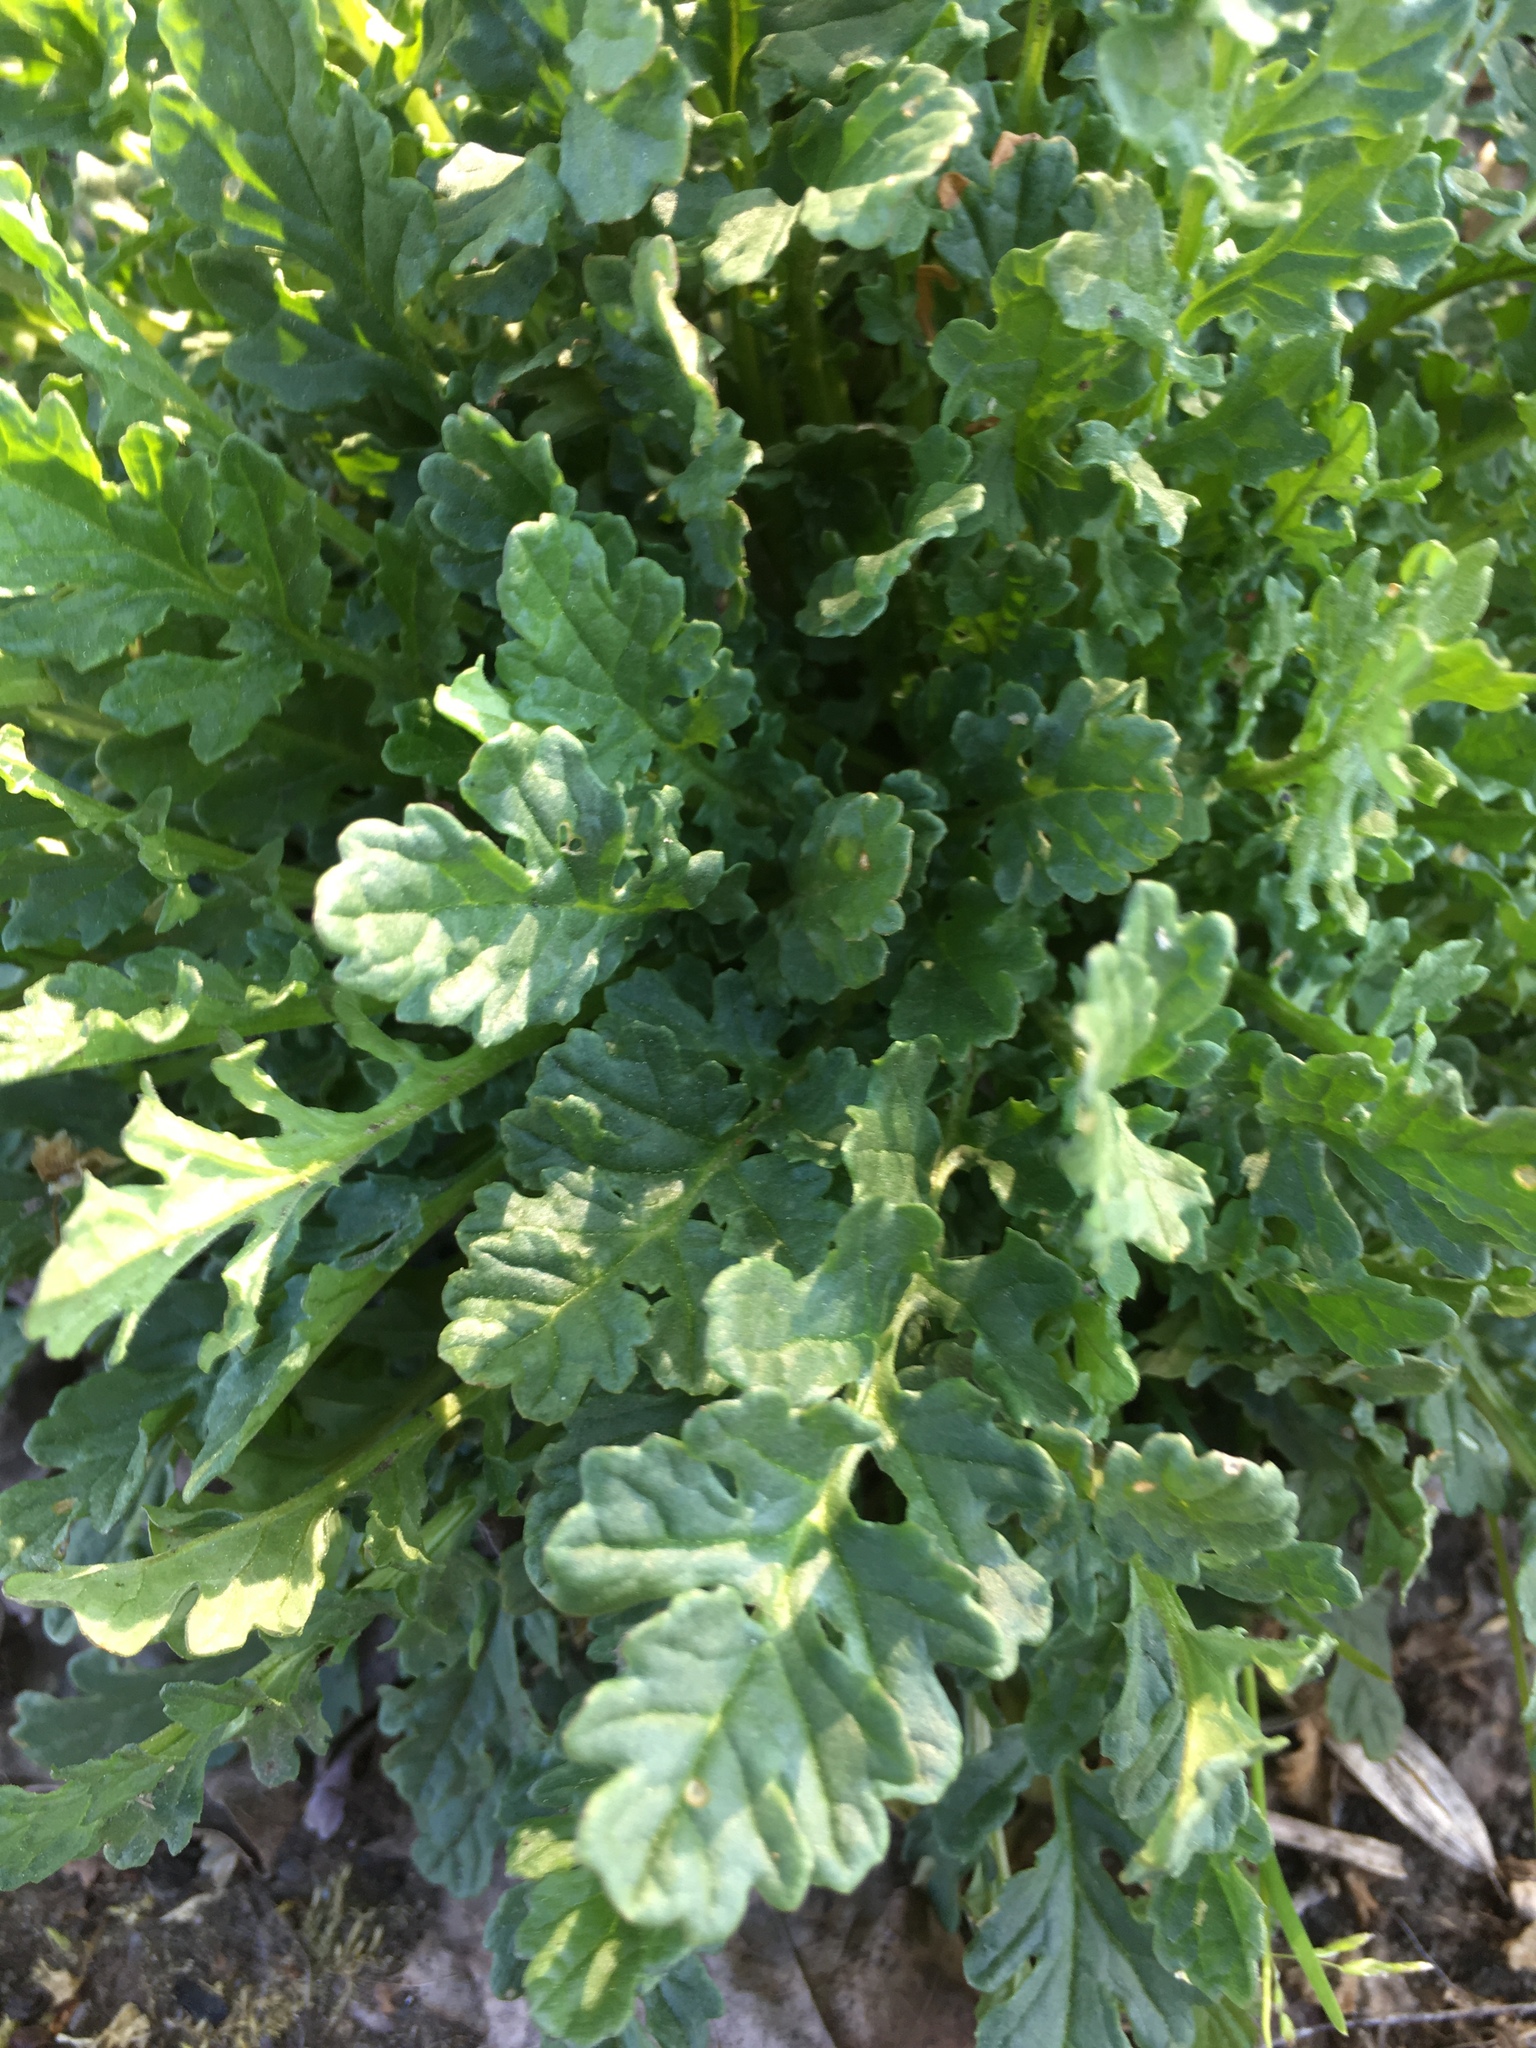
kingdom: Plantae
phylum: Tracheophyta
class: Magnoliopsida
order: Asterales
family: Asteraceae
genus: Jacobaea
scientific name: Jacobaea vulgaris
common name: Stinking willie
